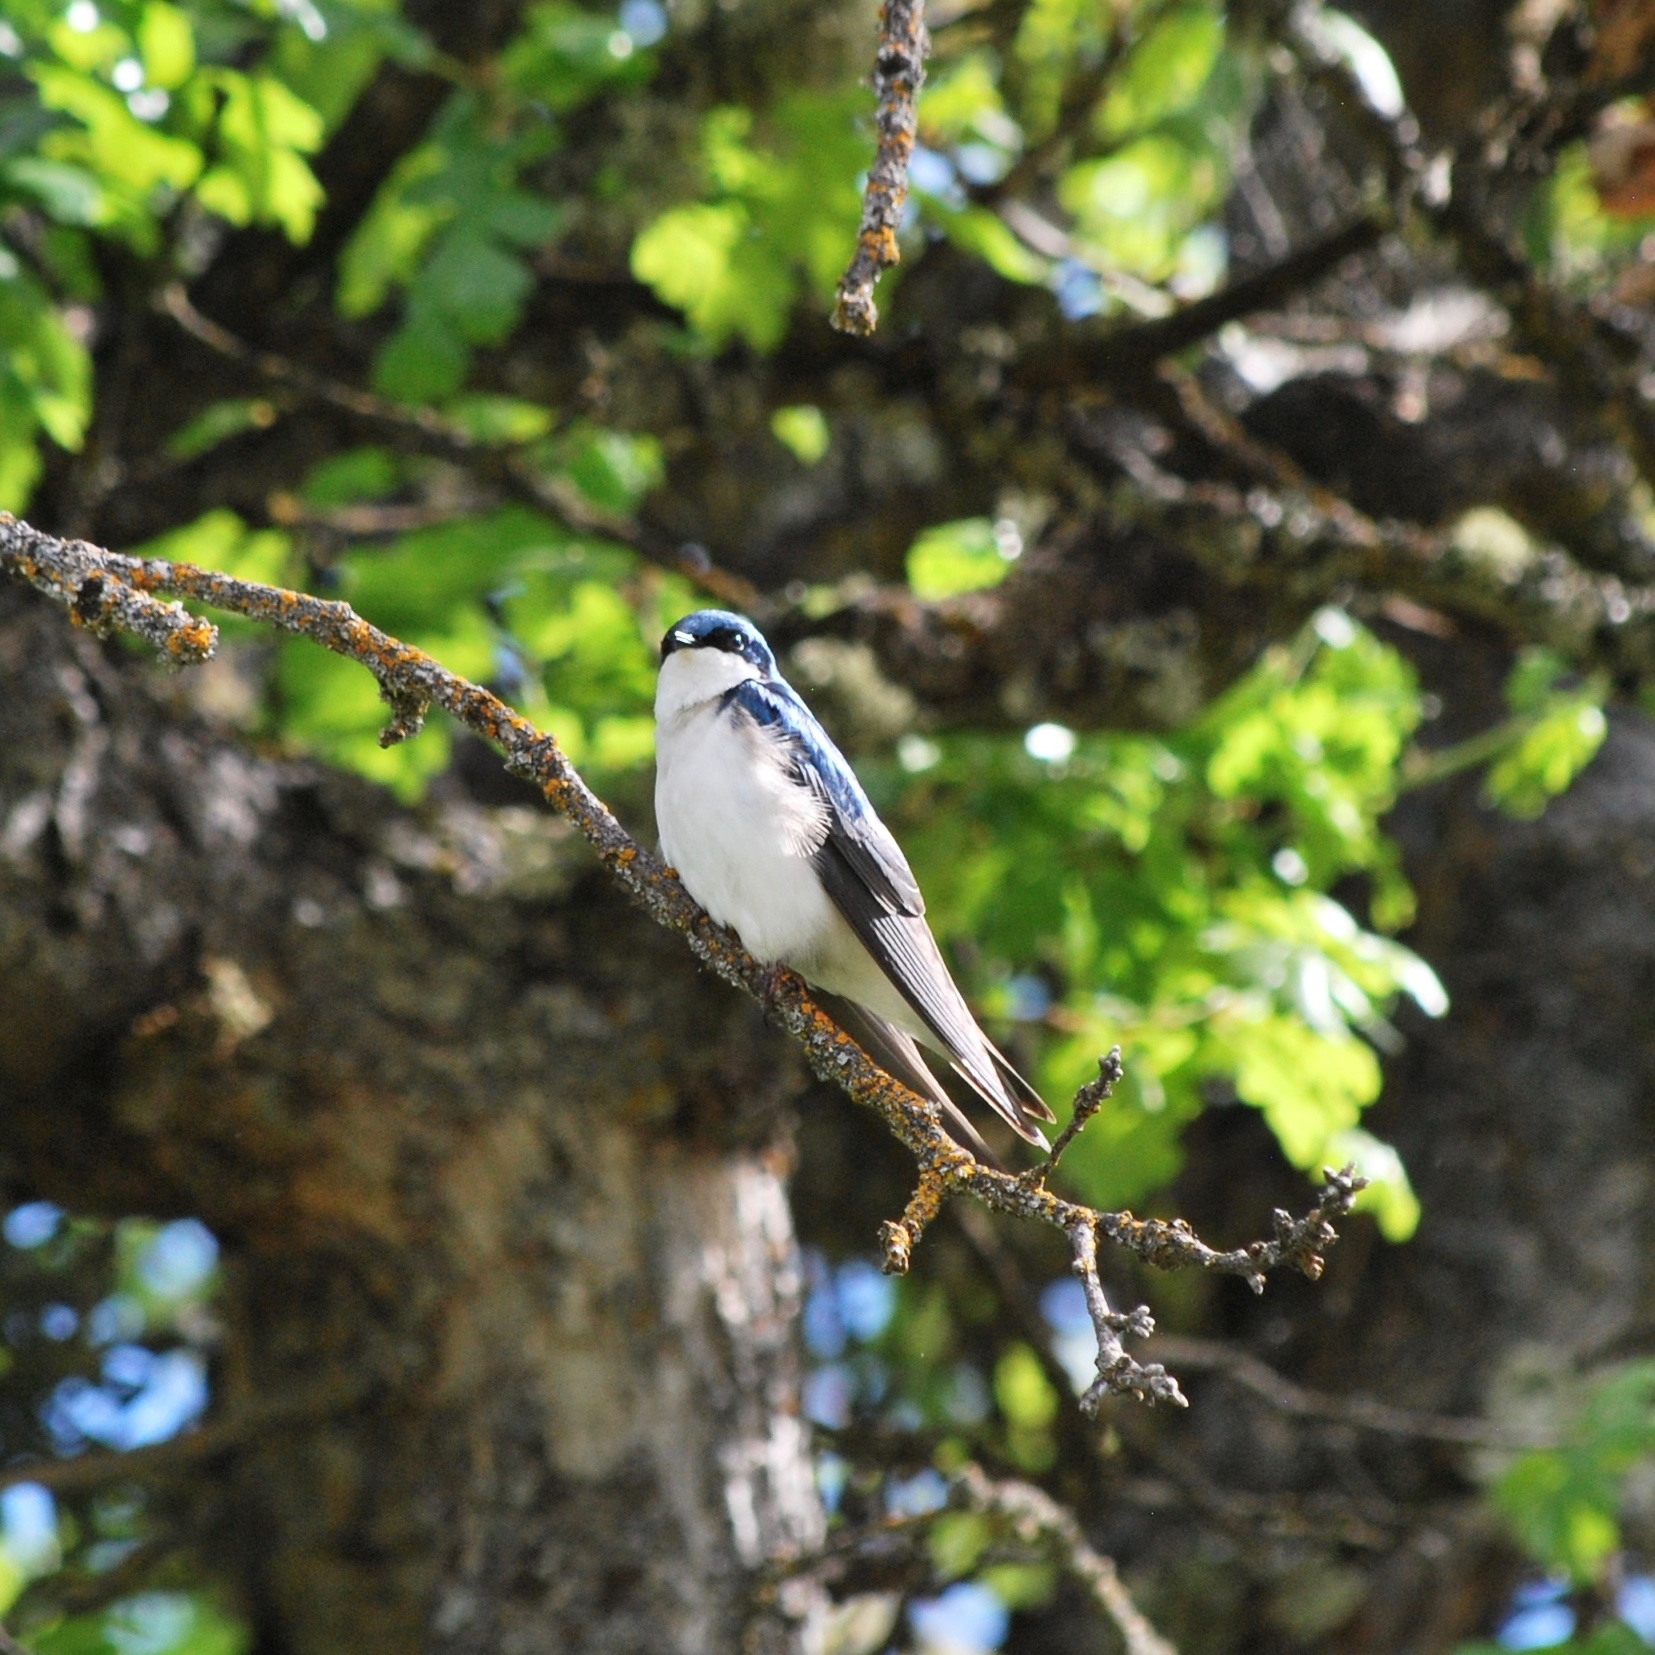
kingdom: Animalia
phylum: Chordata
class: Aves
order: Passeriformes
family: Hirundinidae
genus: Tachycineta
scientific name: Tachycineta bicolor
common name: Tree swallow
